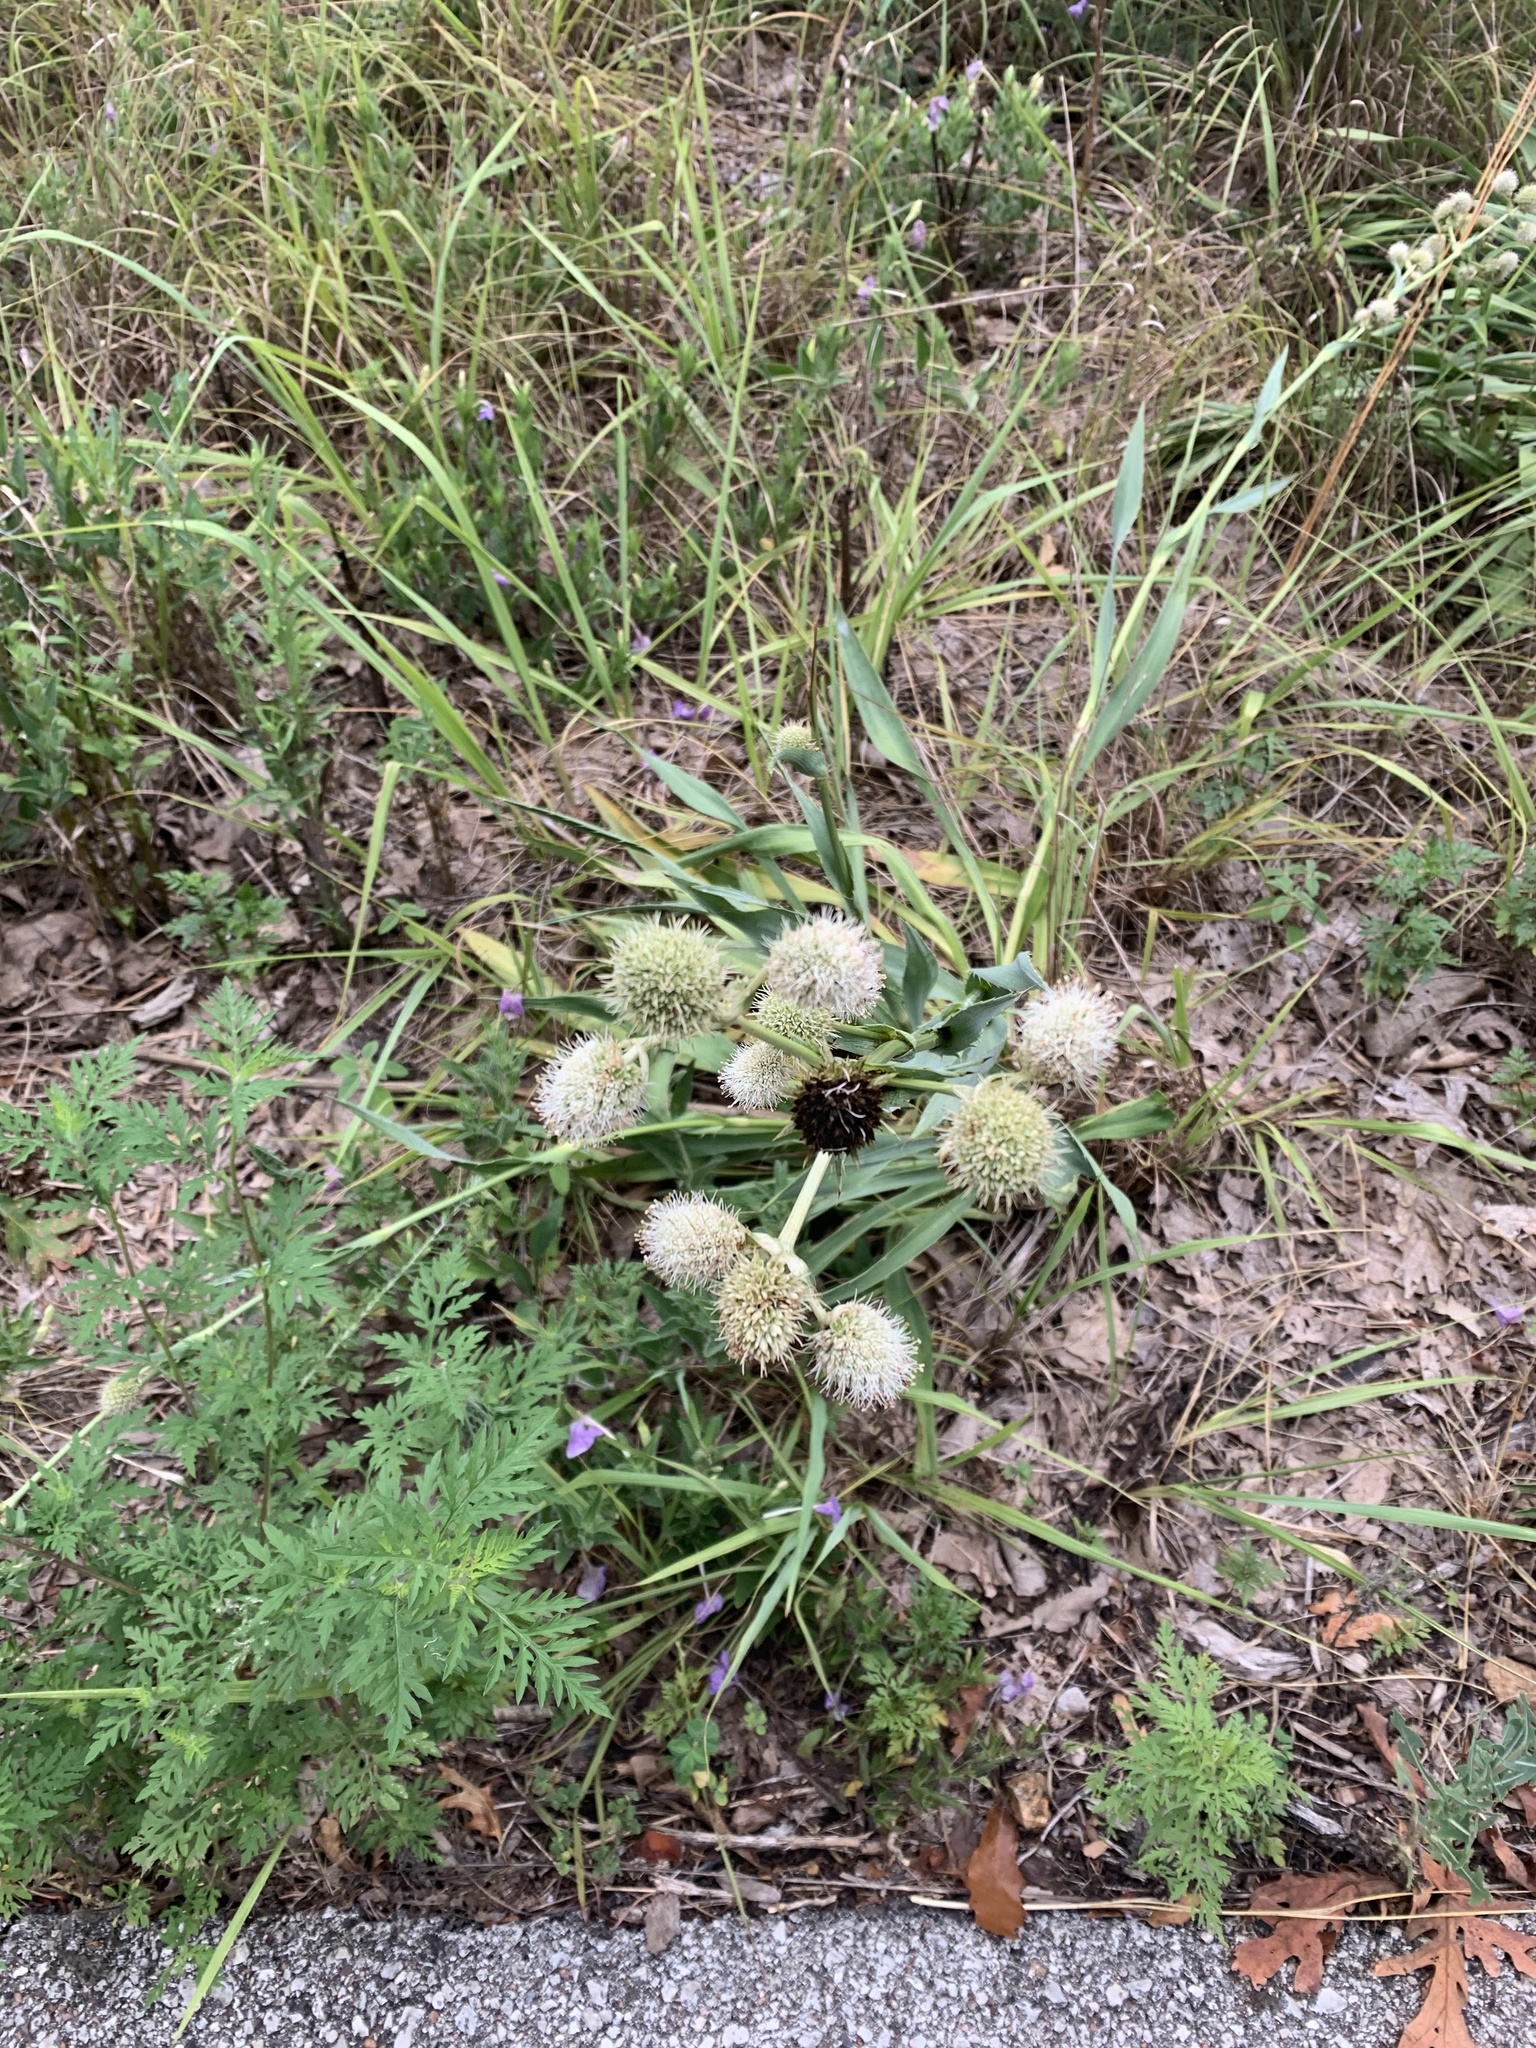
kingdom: Plantae
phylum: Tracheophyta
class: Magnoliopsida
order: Apiales
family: Apiaceae
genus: Eryngium
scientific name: Eryngium yuccifolium
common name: Button eryngo
